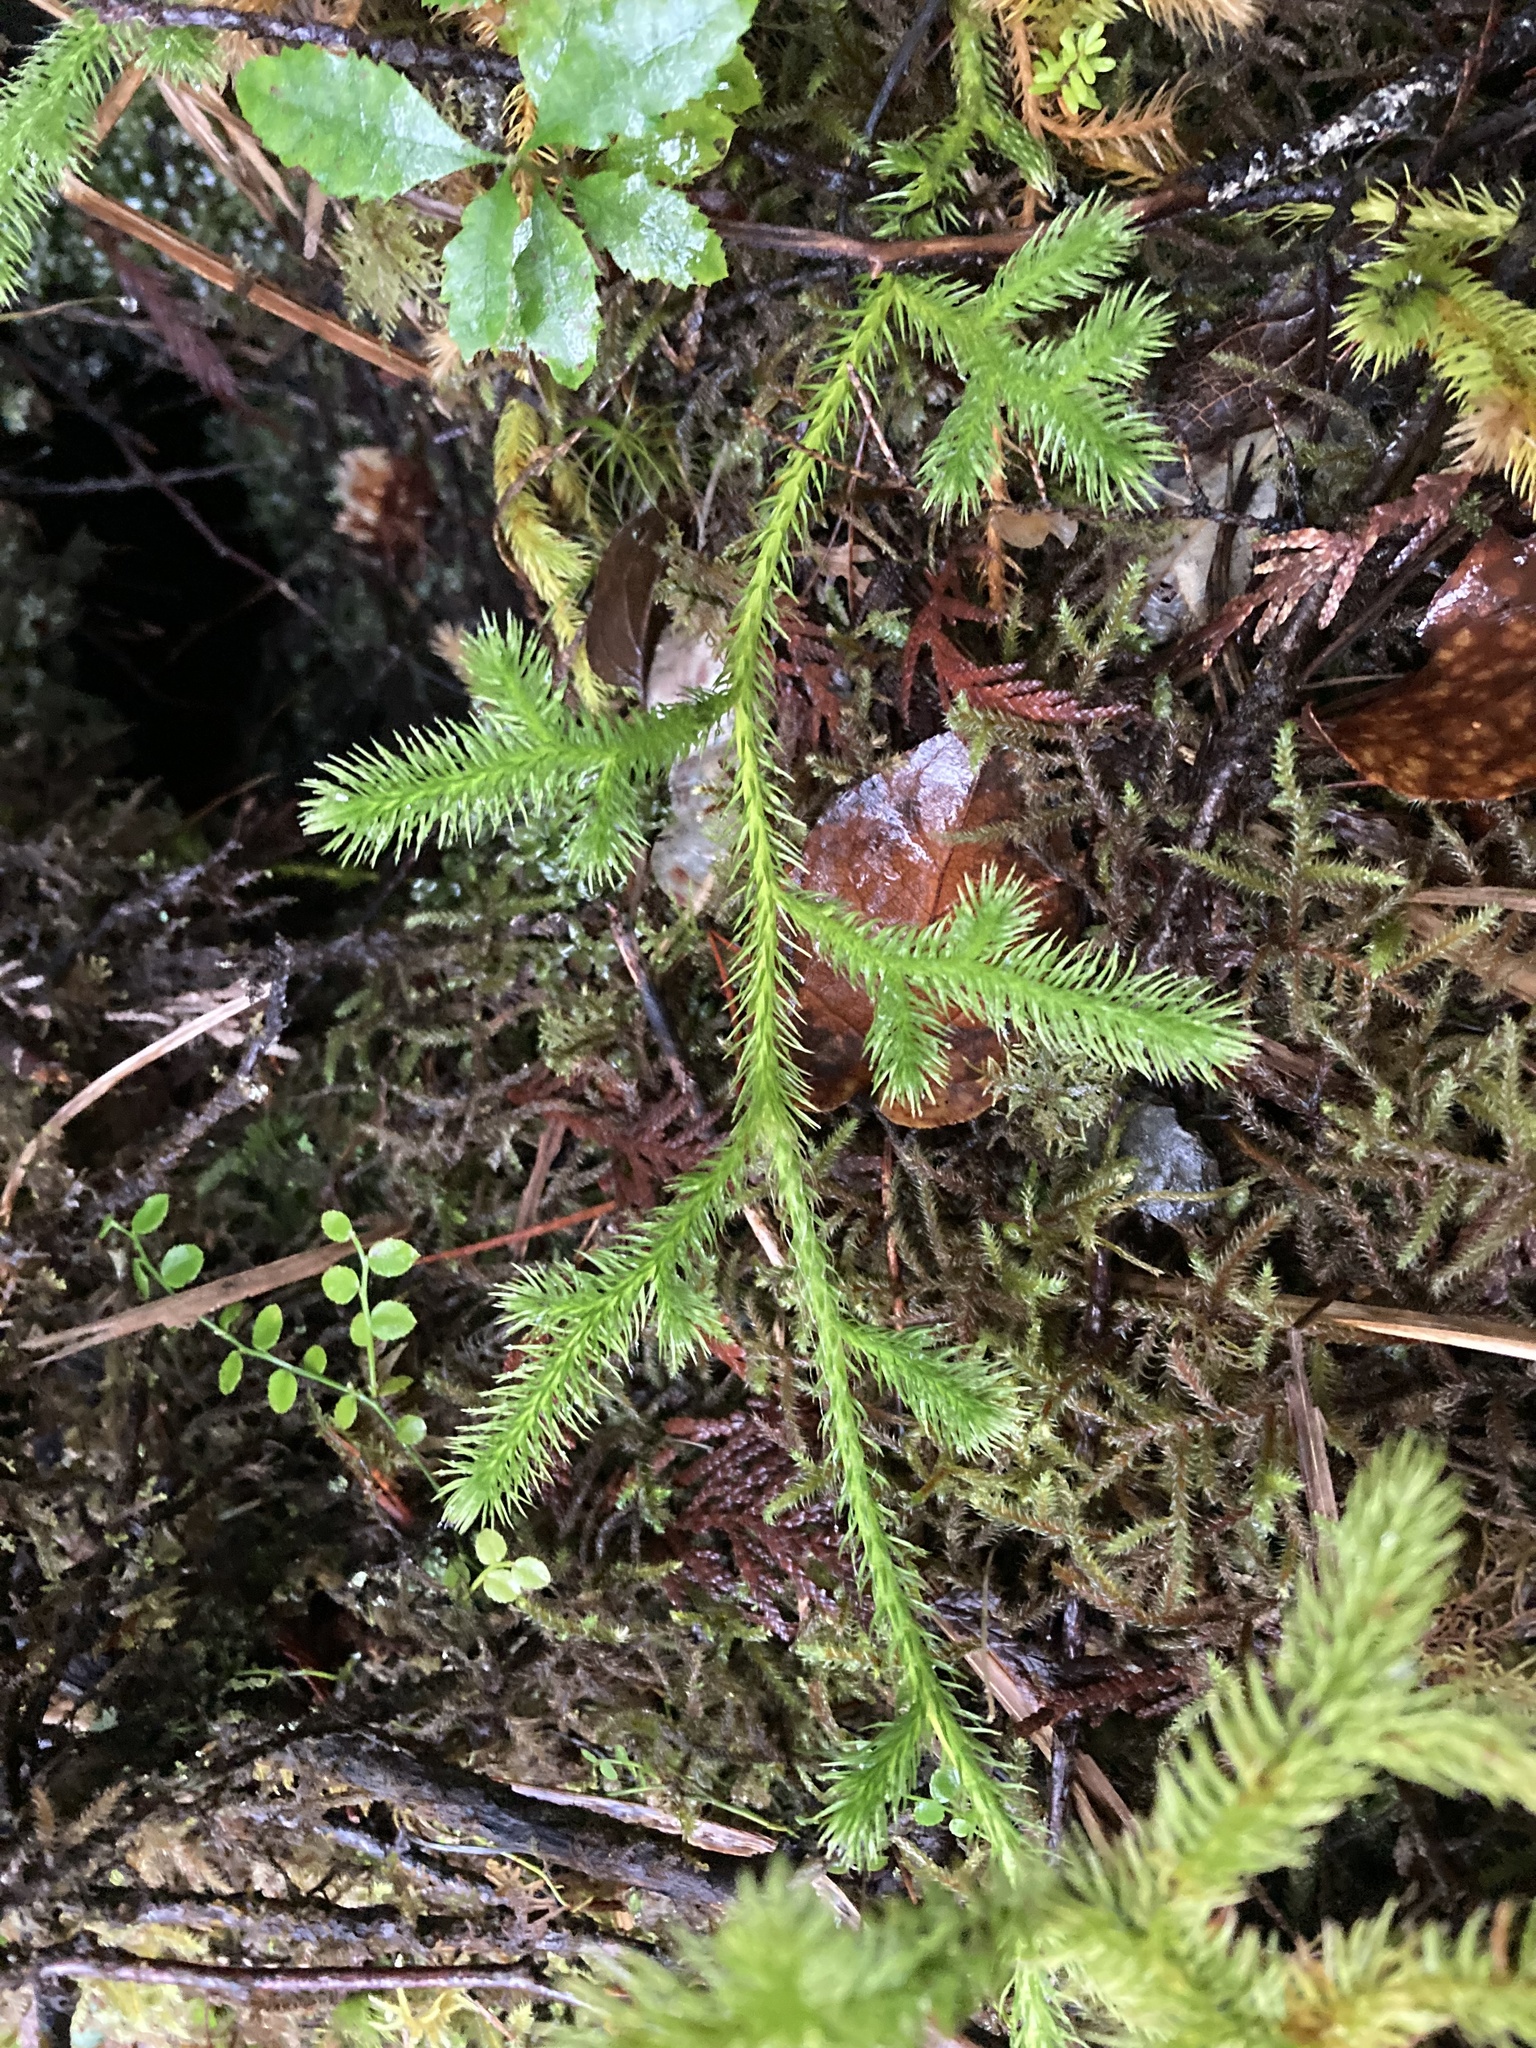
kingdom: Plantae
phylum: Tracheophyta
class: Lycopodiopsida
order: Lycopodiales
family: Lycopodiaceae
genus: Lycopodium
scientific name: Lycopodium clavatum
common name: Stag's-horn clubmoss
